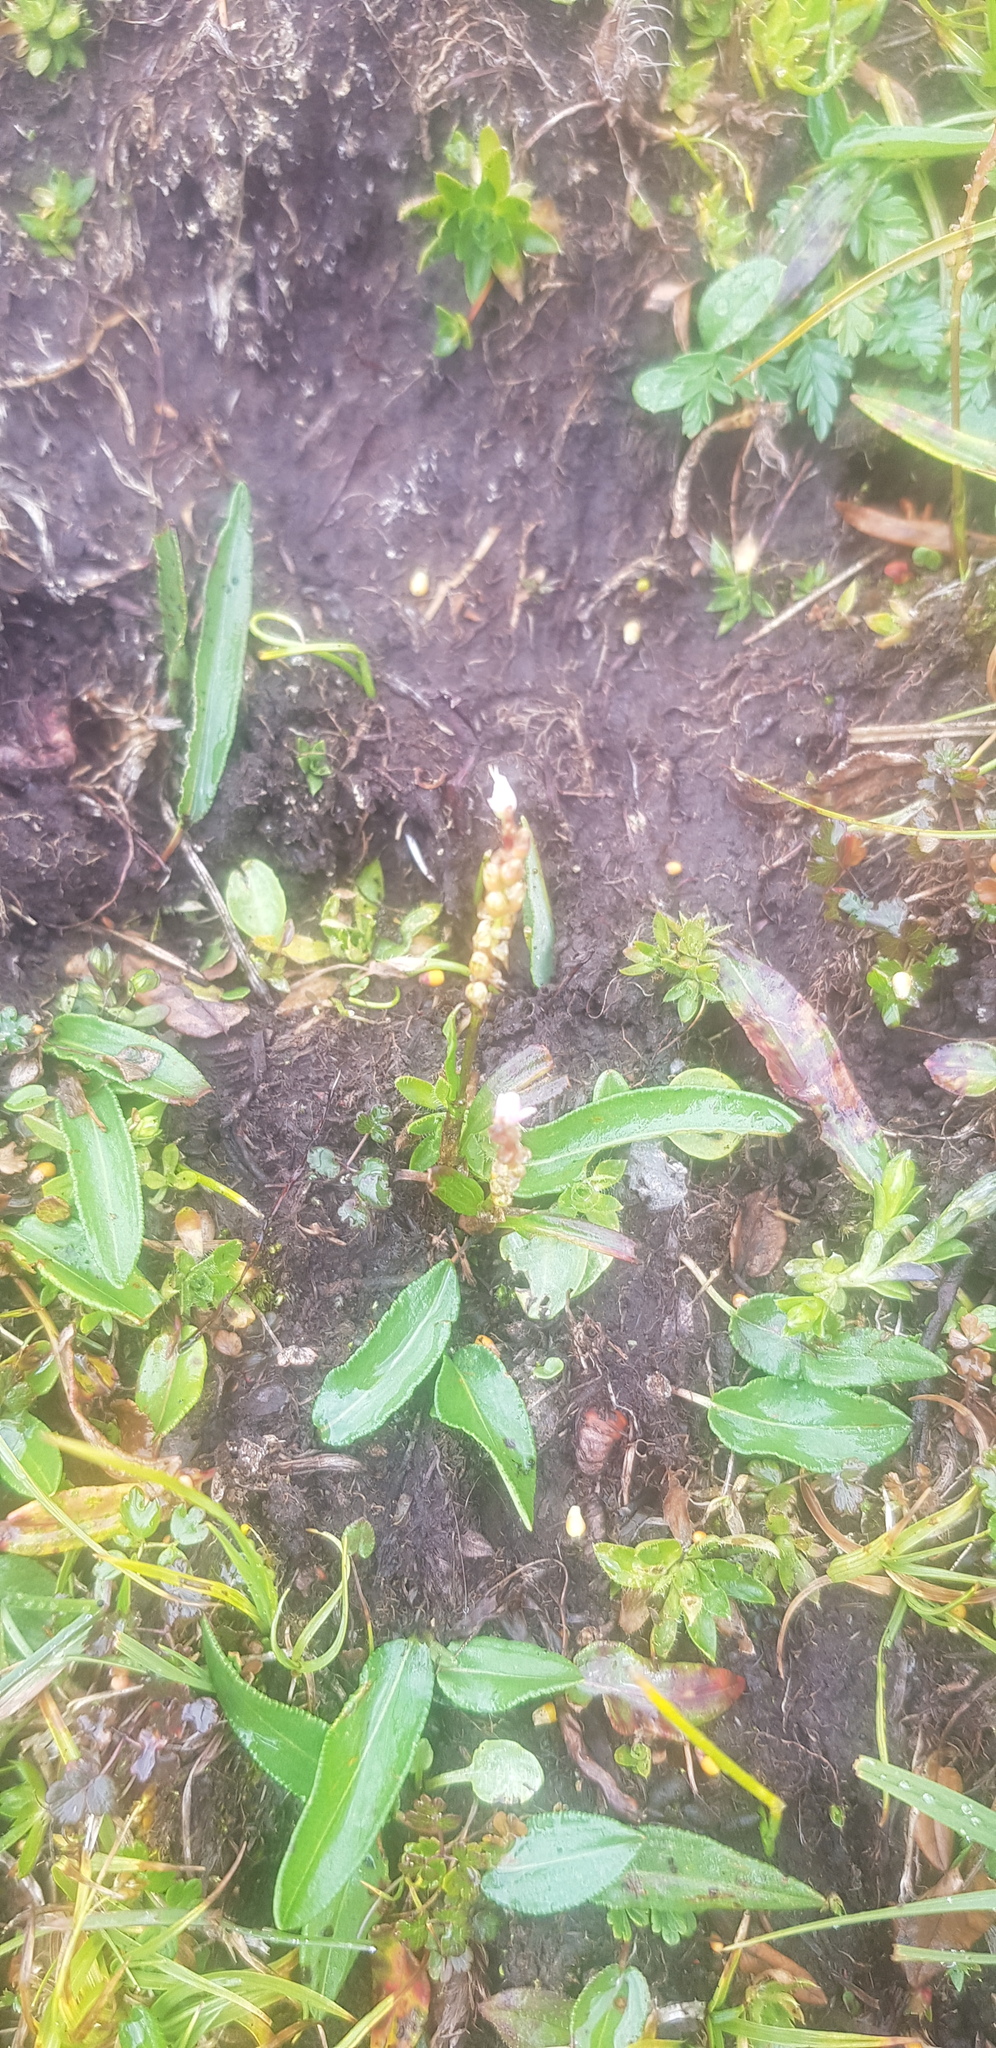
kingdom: Plantae
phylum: Tracheophyta
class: Magnoliopsida
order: Caryophyllales
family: Polygonaceae
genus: Bistorta
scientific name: Bistorta vivipara
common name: Alpine bistort
